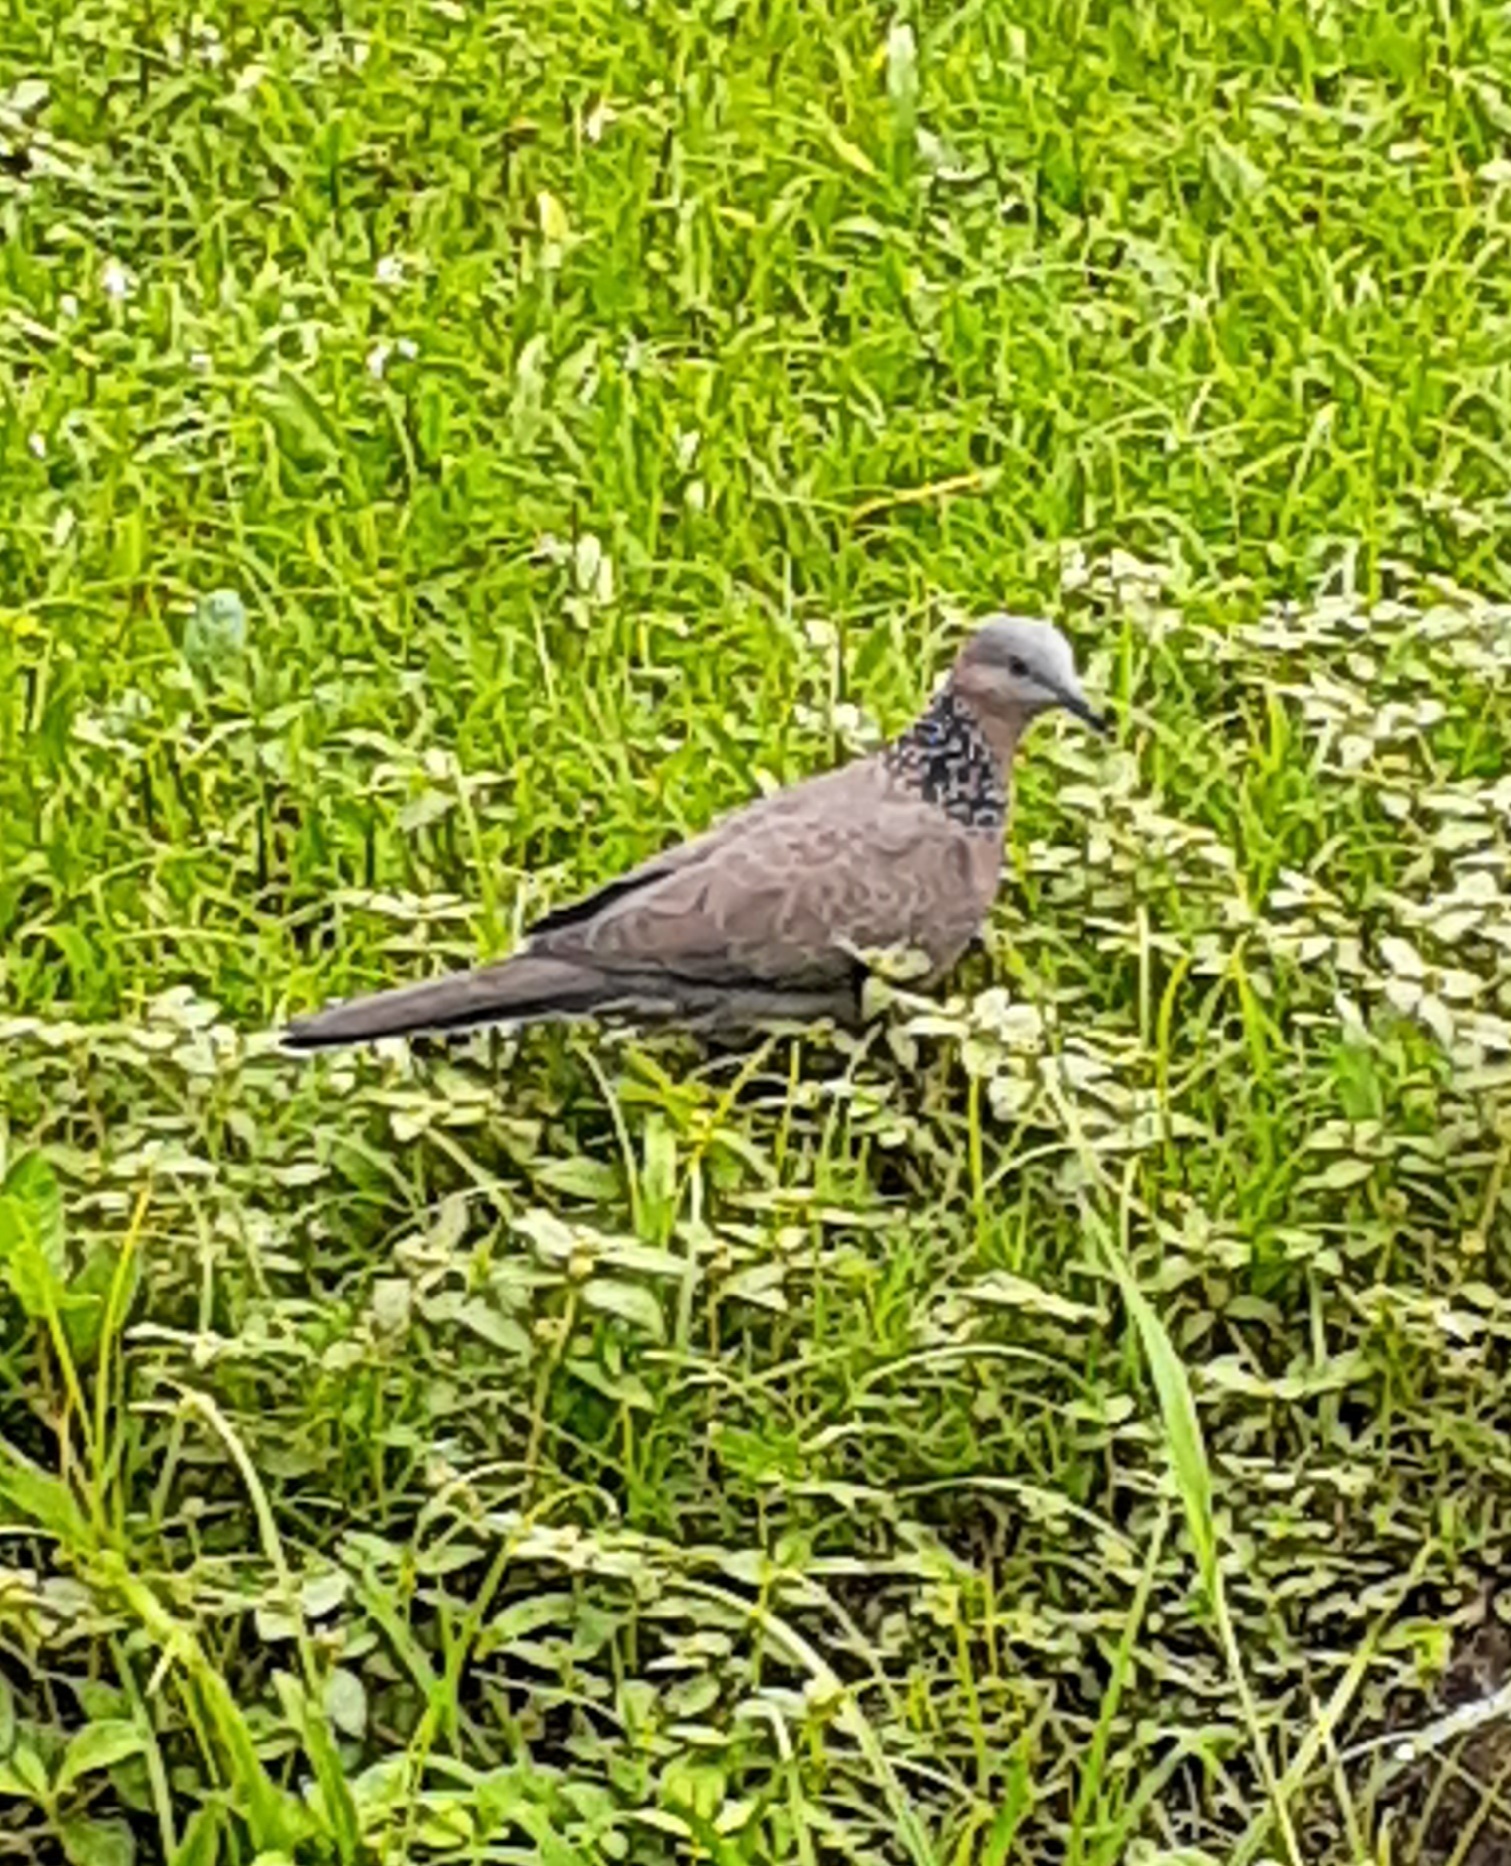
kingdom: Animalia
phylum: Chordata
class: Aves
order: Columbiformes
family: Columbidae
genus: Spilopelia
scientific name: Spilopelia chinensis
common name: Spotted dove
